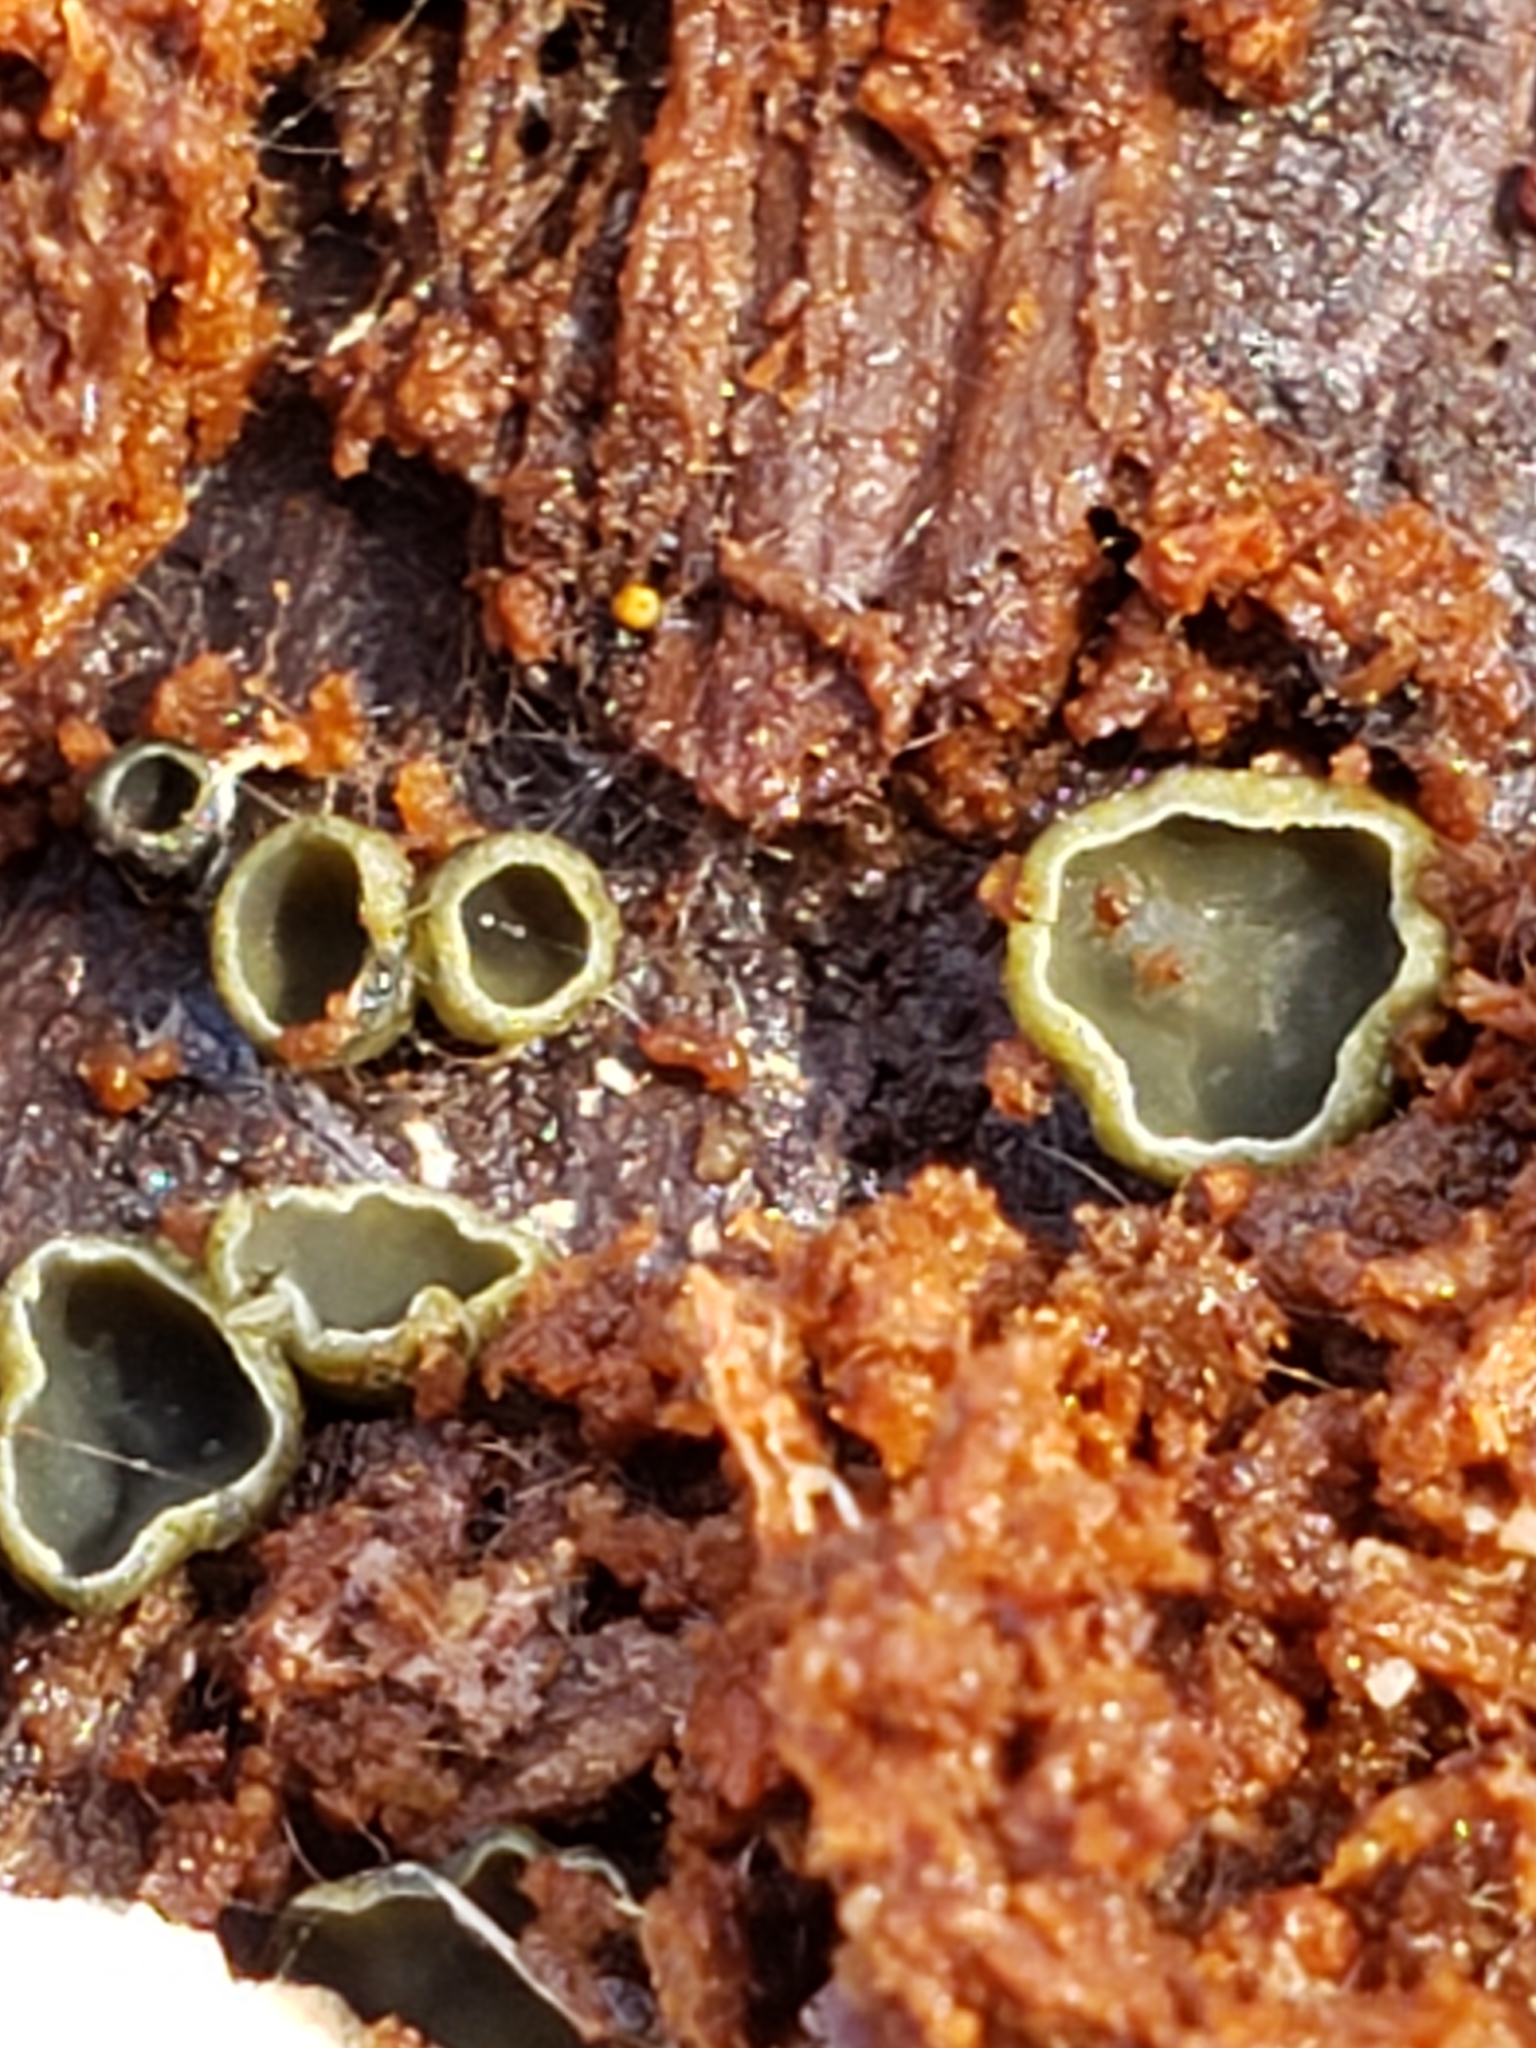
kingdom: Fungi
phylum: Ascomycota
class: Leotiomycetes
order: Helotiales
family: Chlorospleniaceae
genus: Chlorosplenium
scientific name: Chlorosplenium chlora
